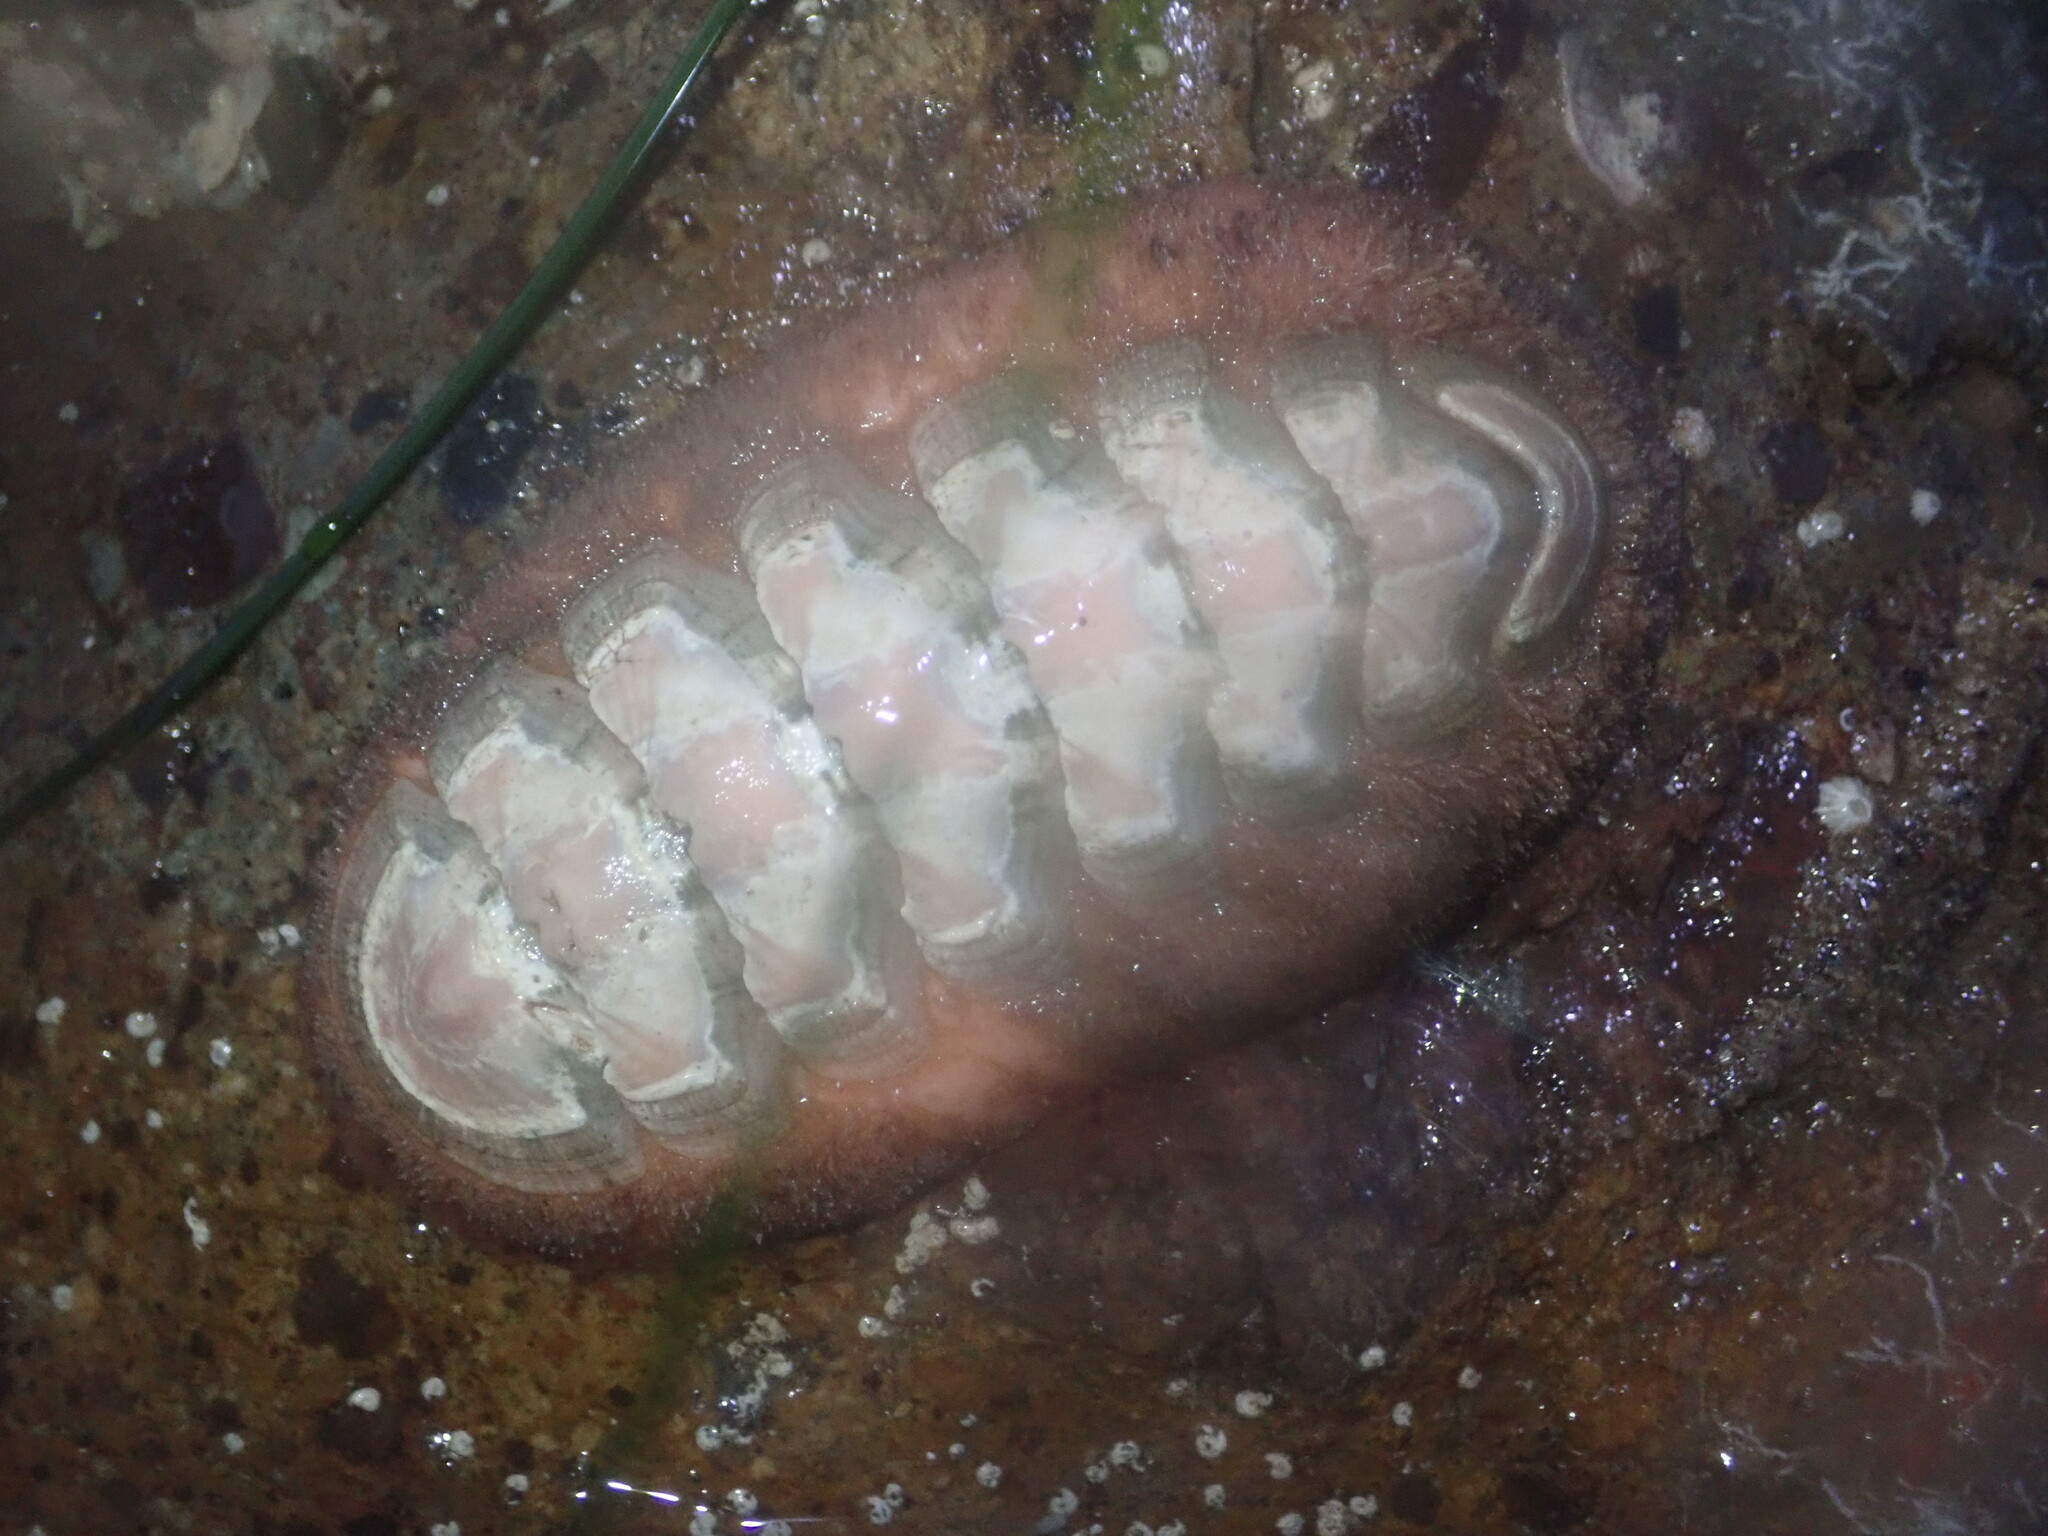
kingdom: Animalia
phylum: Mollusca
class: Polyplacophora
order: Chitonida
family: Ischnochitonidae
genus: Stenoplax
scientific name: Stenoplax conspicua
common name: Conspicuous chiton
